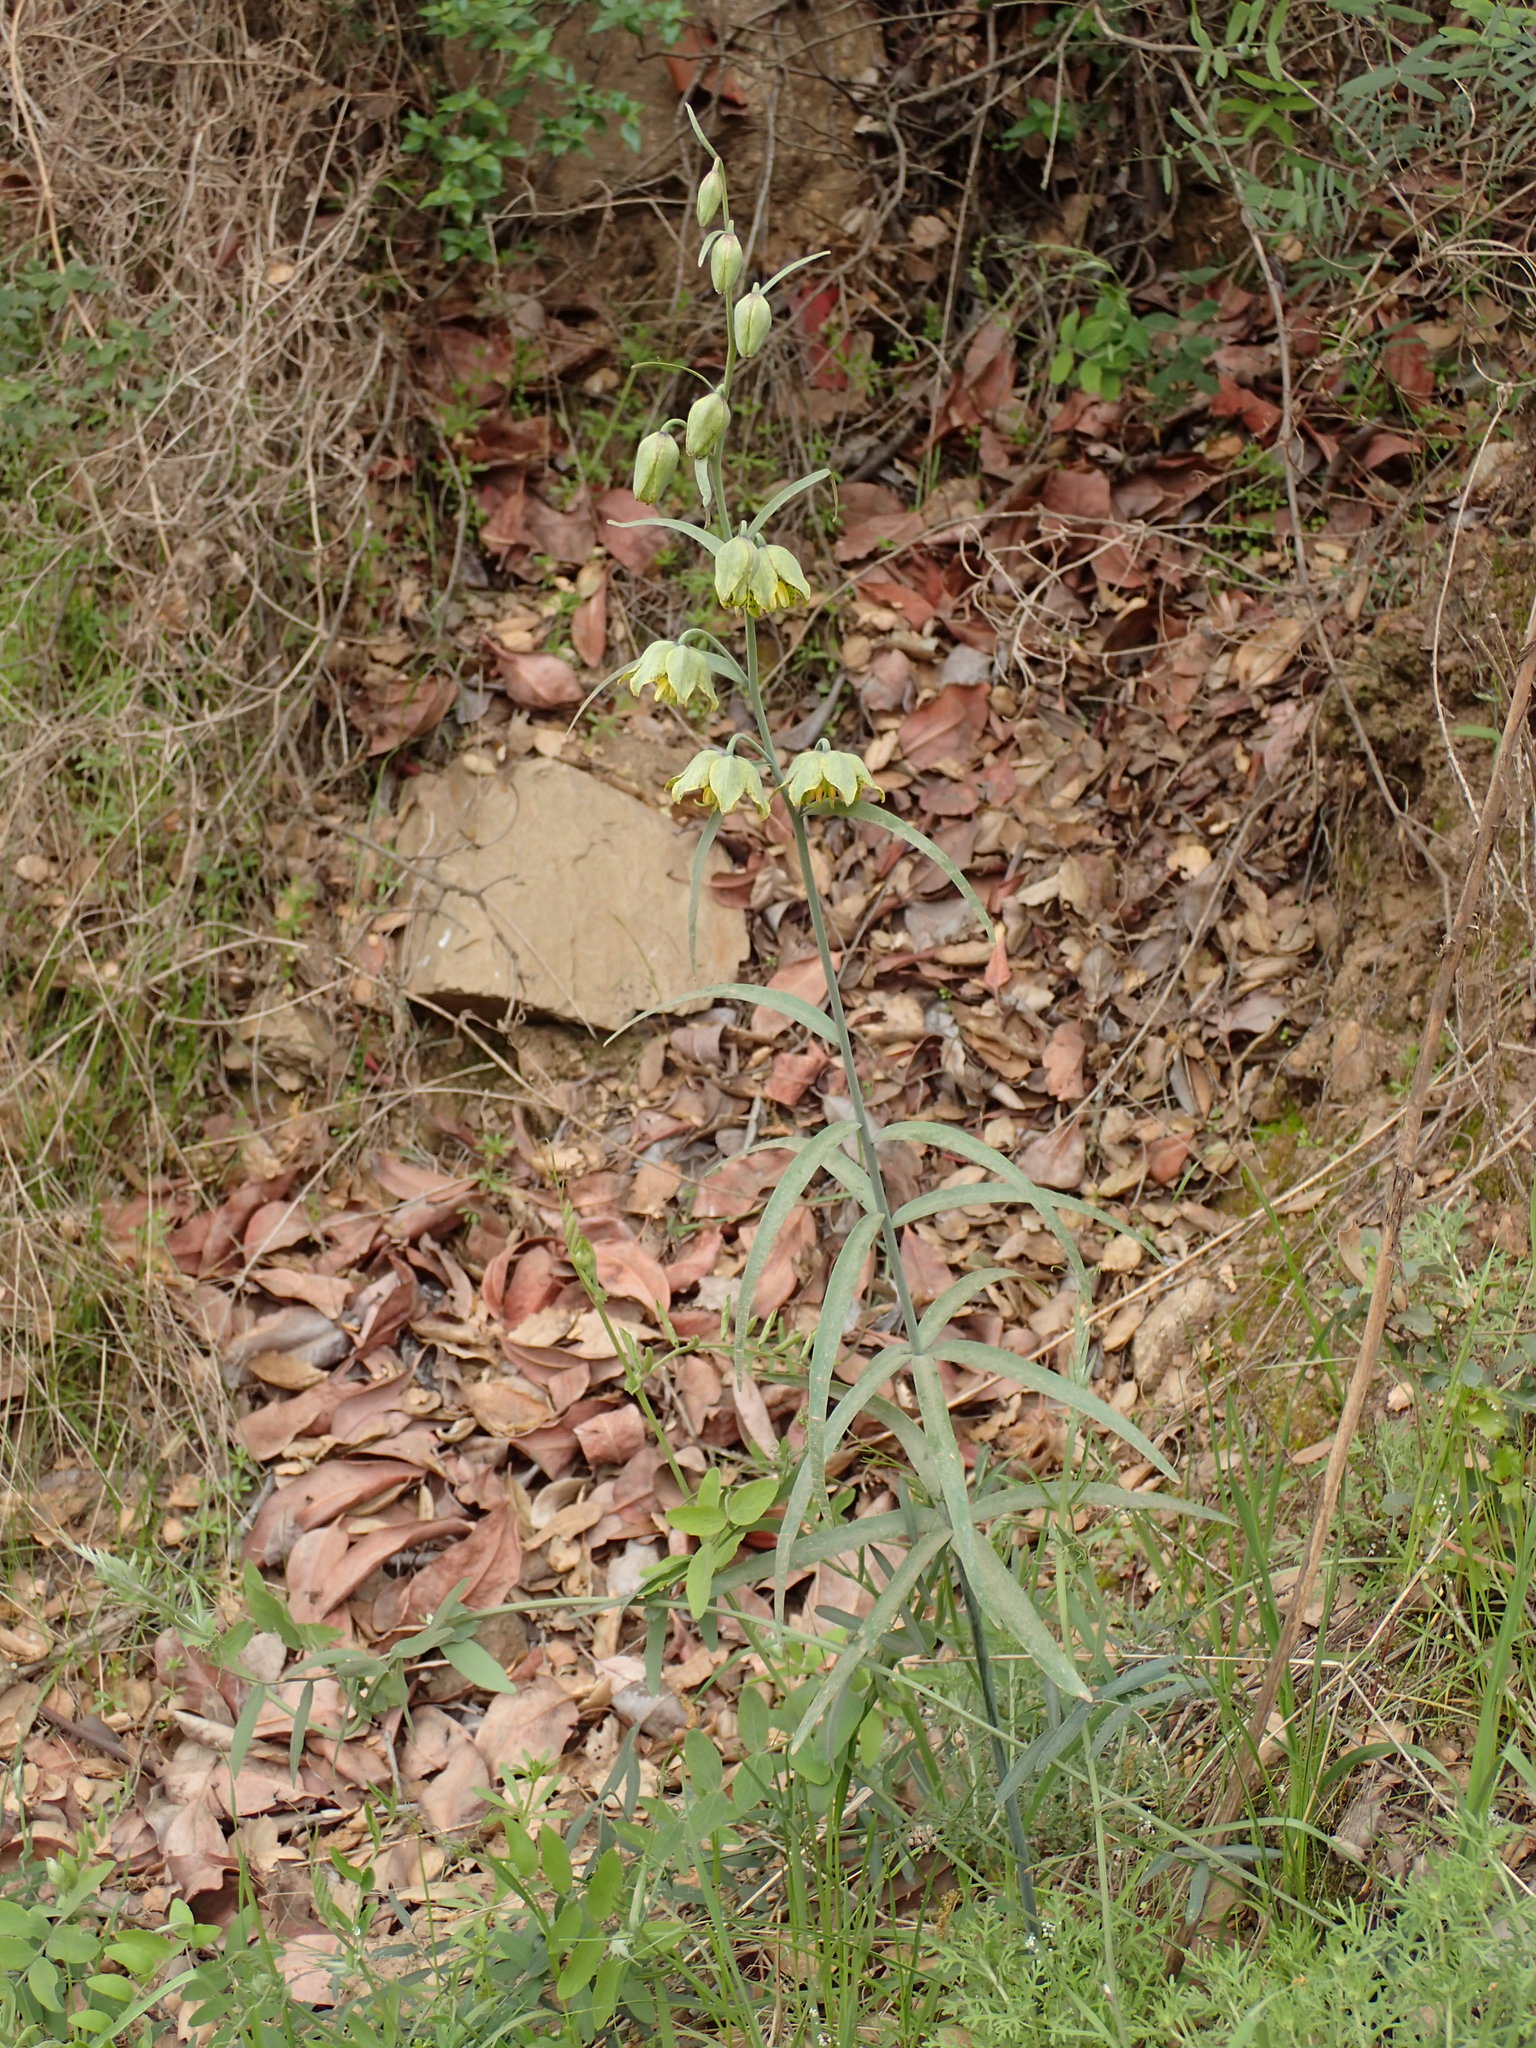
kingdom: Plantae
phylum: Tracheophyta
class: Liliopsida
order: Liliales
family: Liliaceae
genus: Fritillaria
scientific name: Fritillaria ojaiensis
